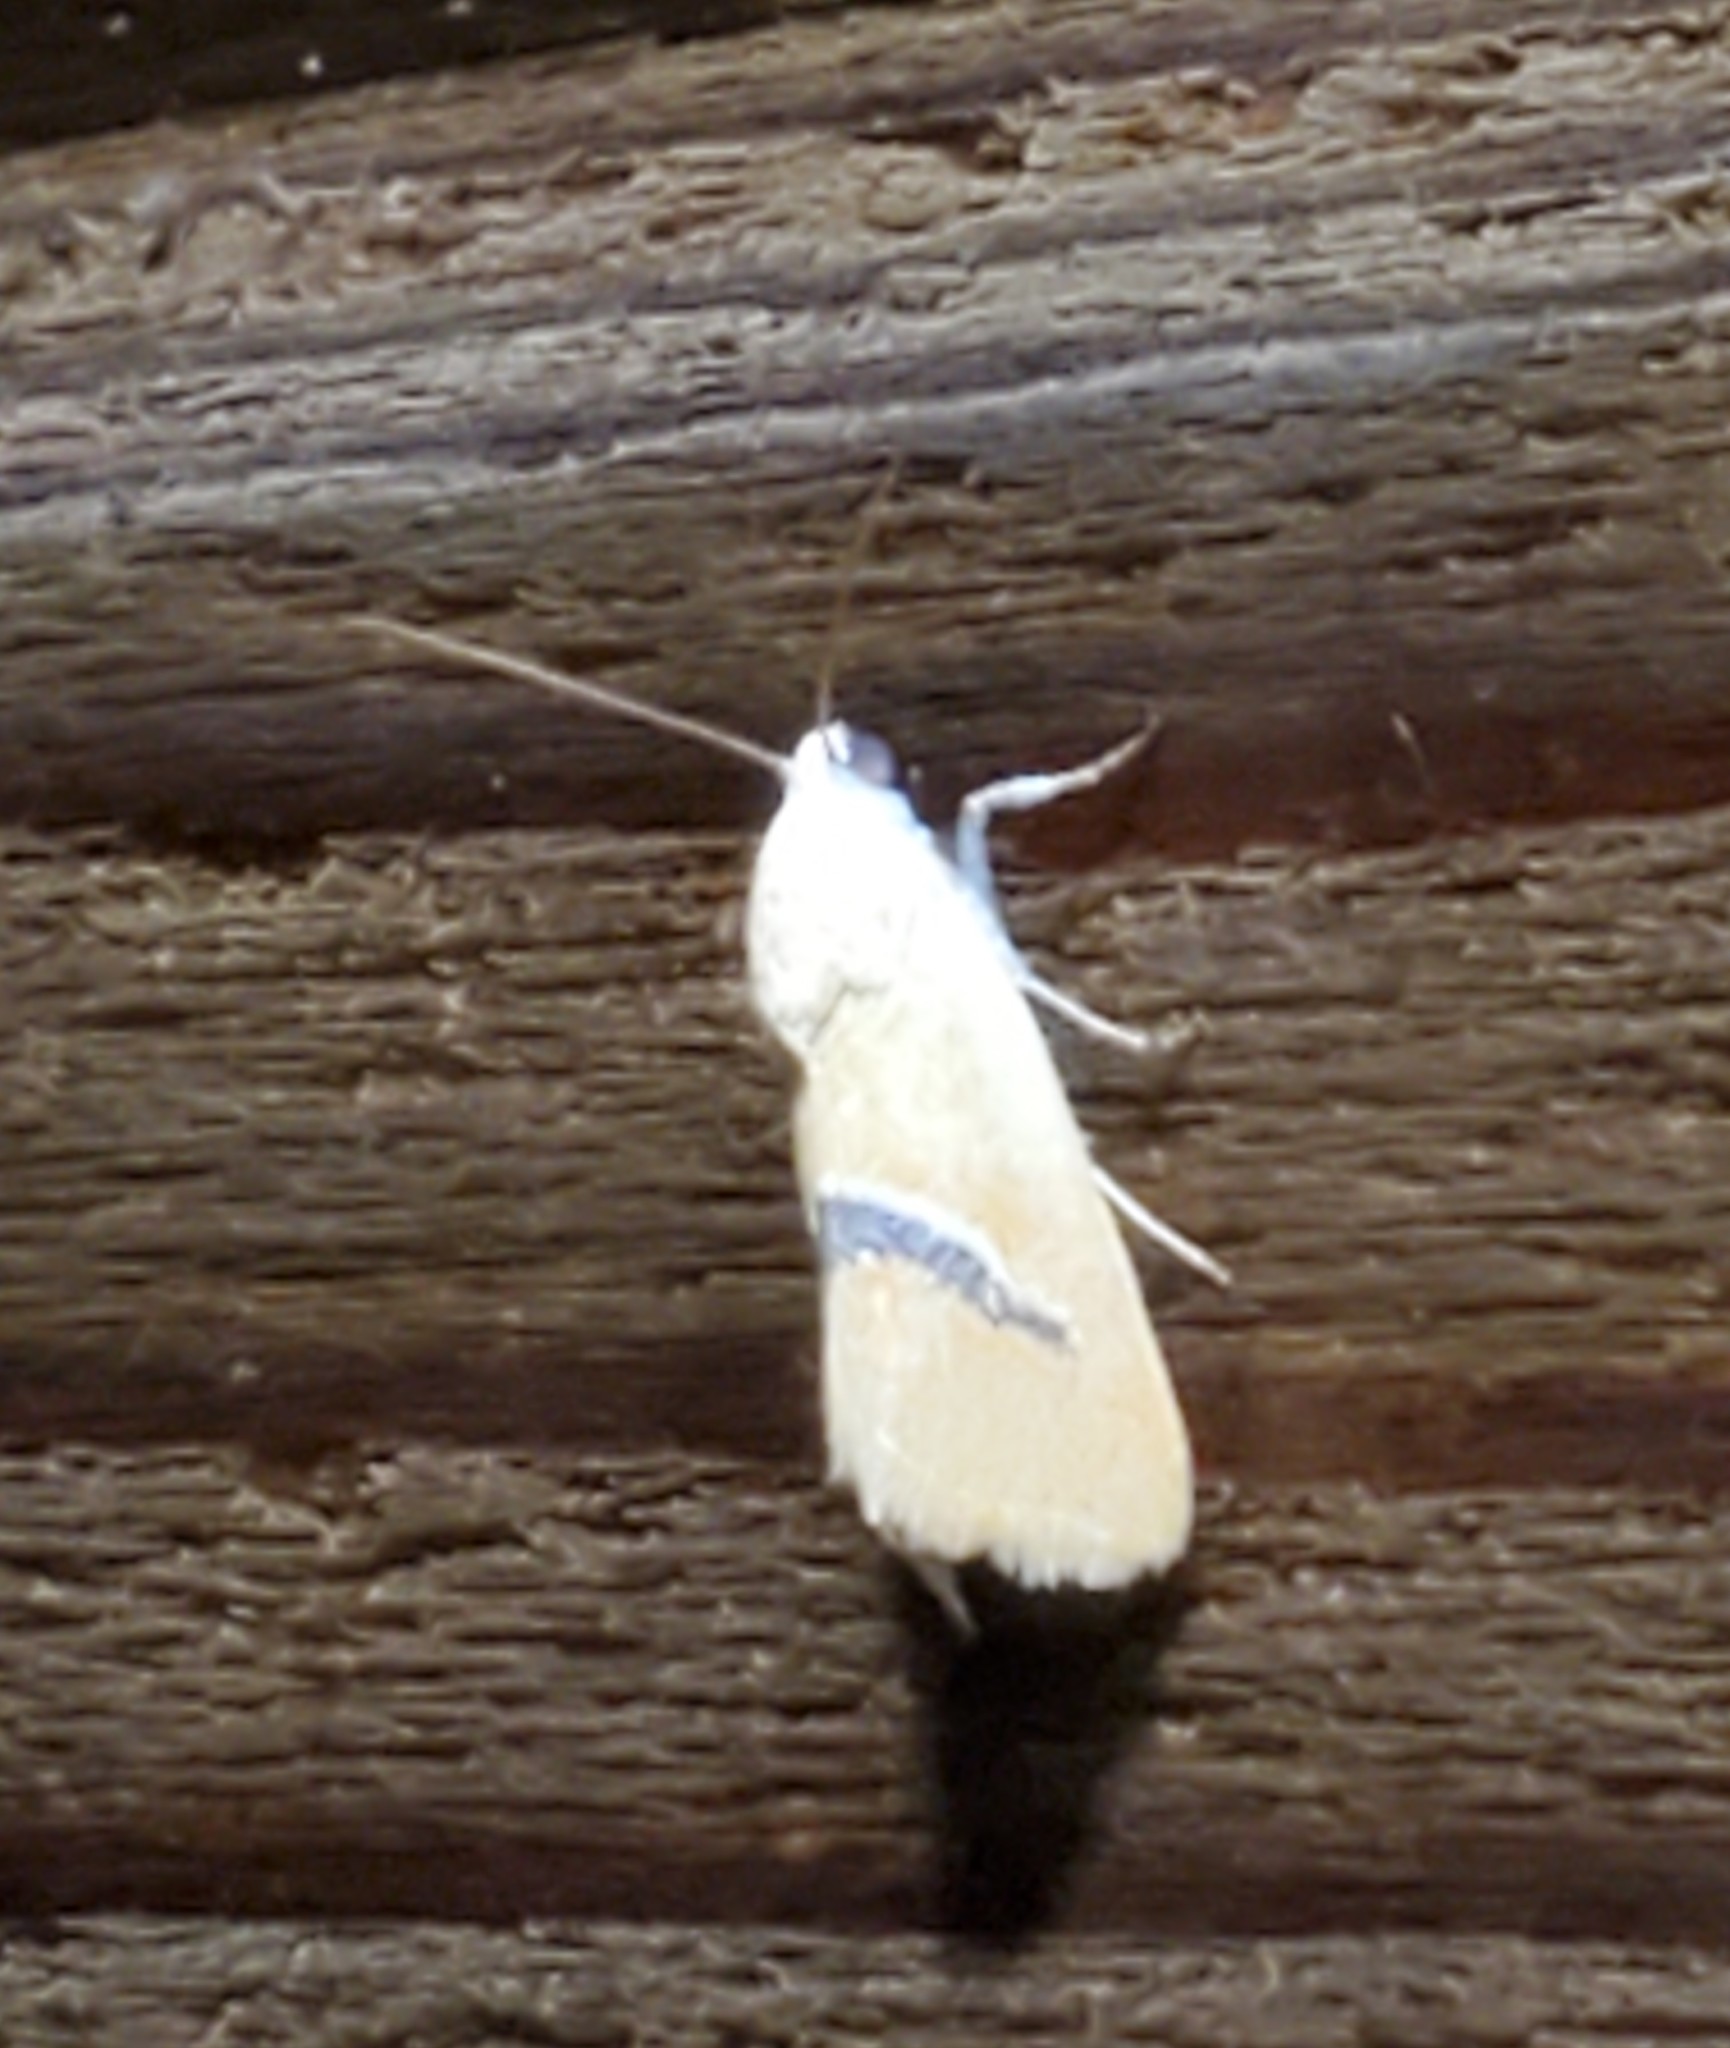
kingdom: Animalia
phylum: Arthropoda
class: Insecta
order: Lepidoptera
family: Noctuidae
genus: Ponometia
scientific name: Ponometia venustula
